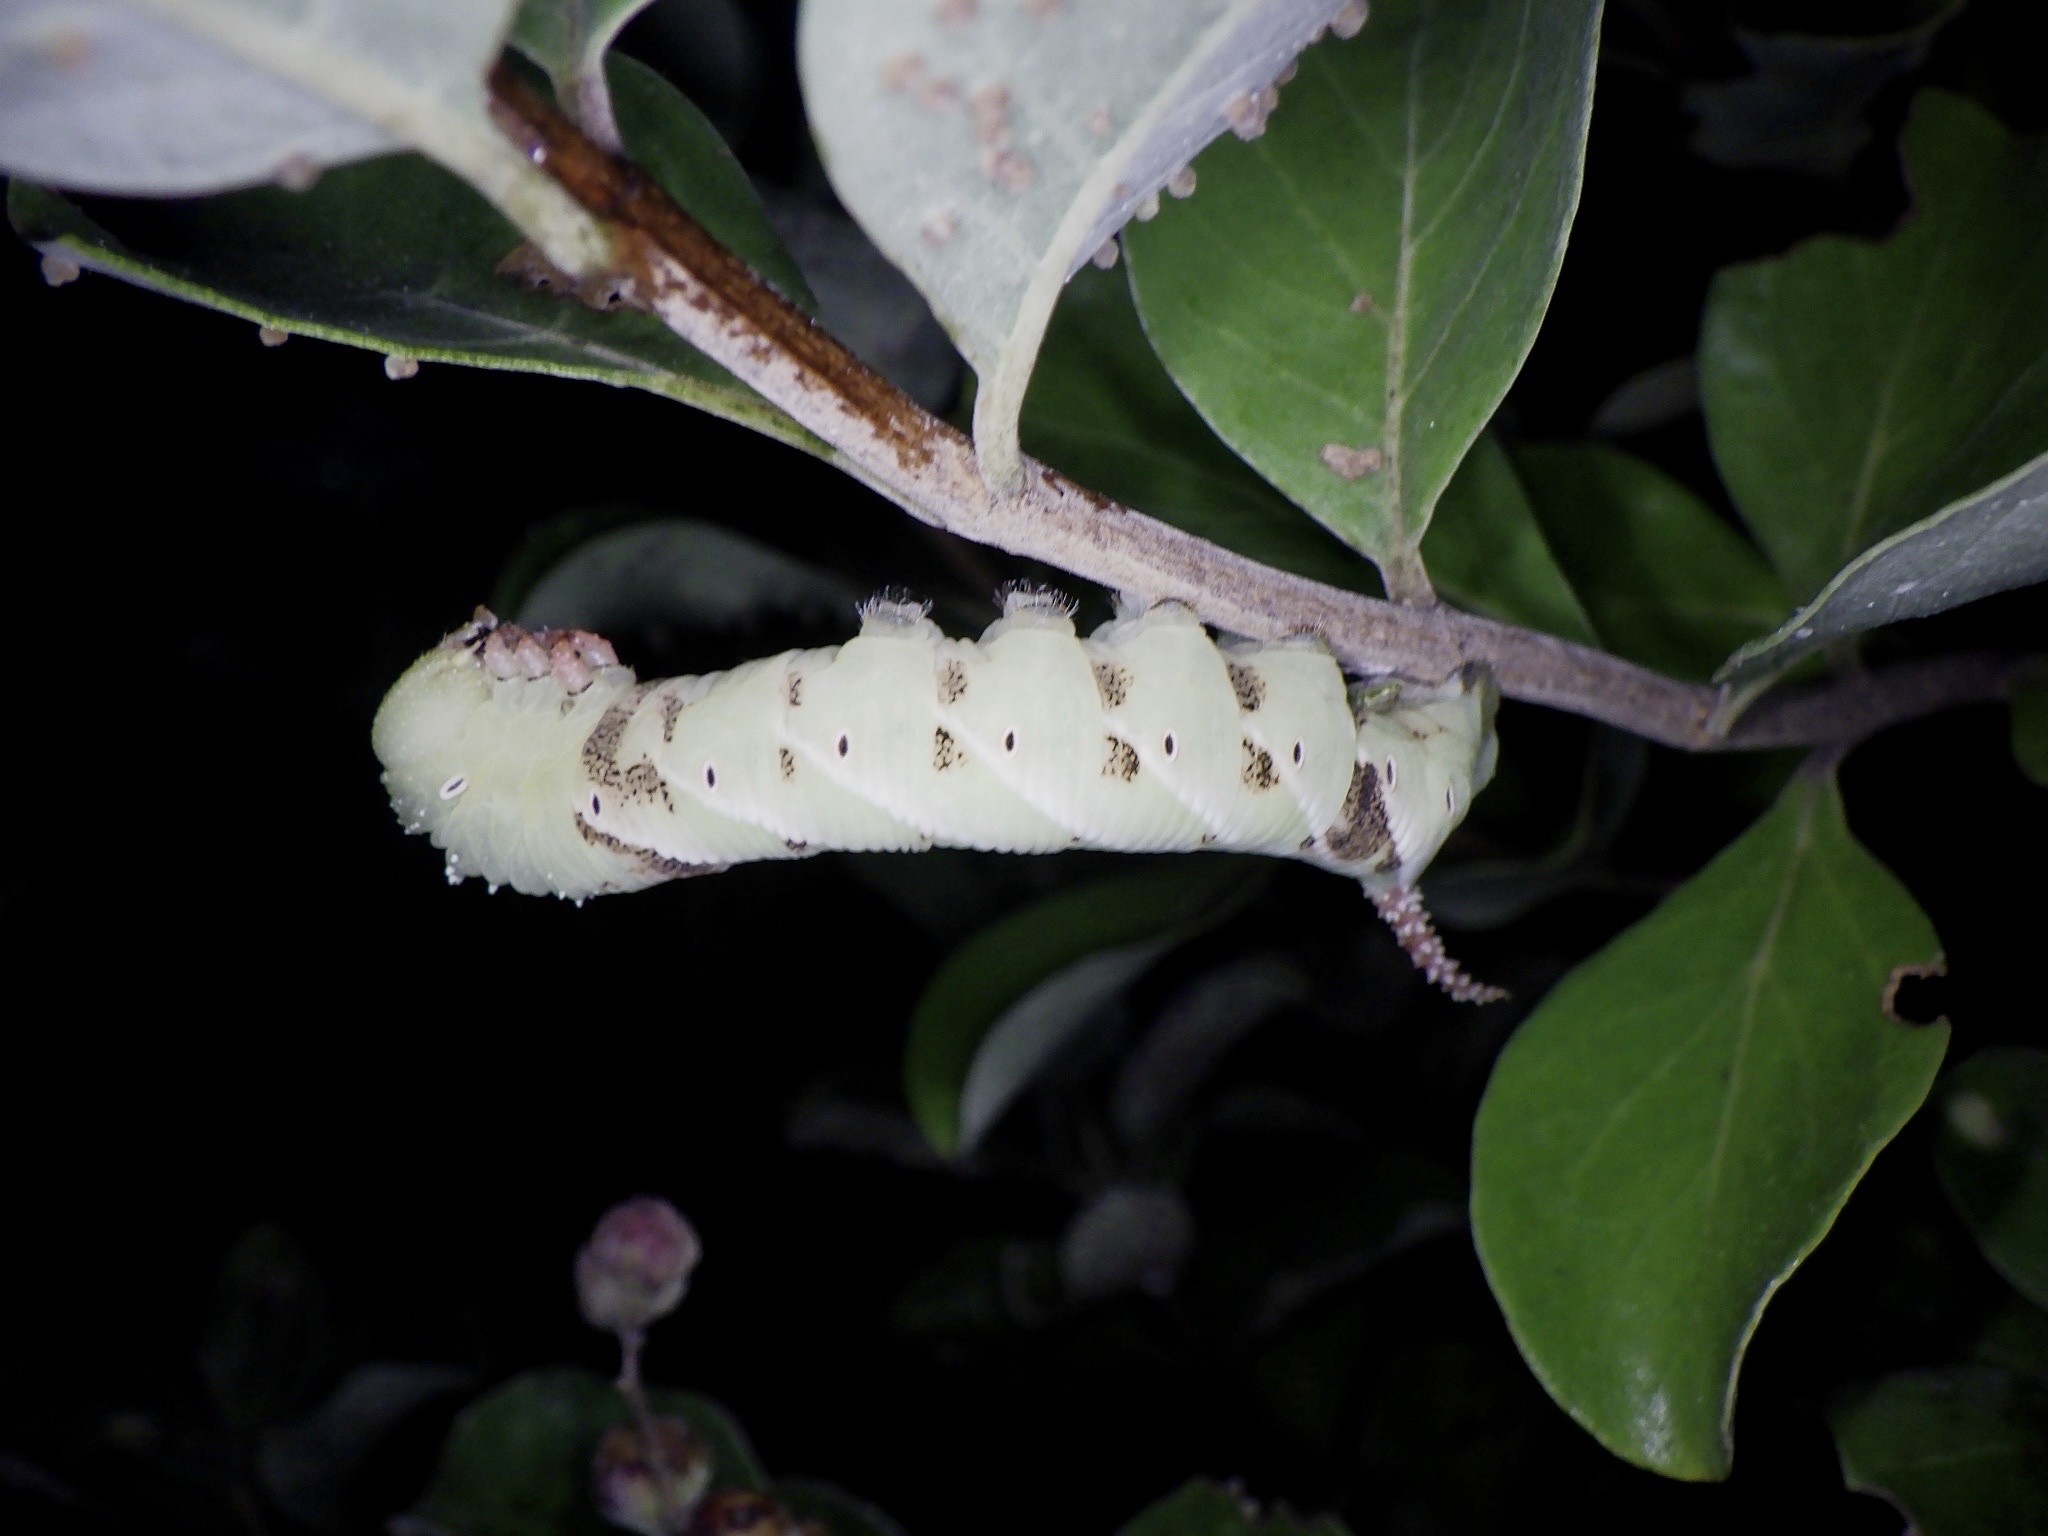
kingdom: Animalia
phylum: Arthropoda
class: Insecta
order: Lepidoptera
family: Sphingidae
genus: Psilogramma
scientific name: Psilogramma increta
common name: Gray hawk moth
